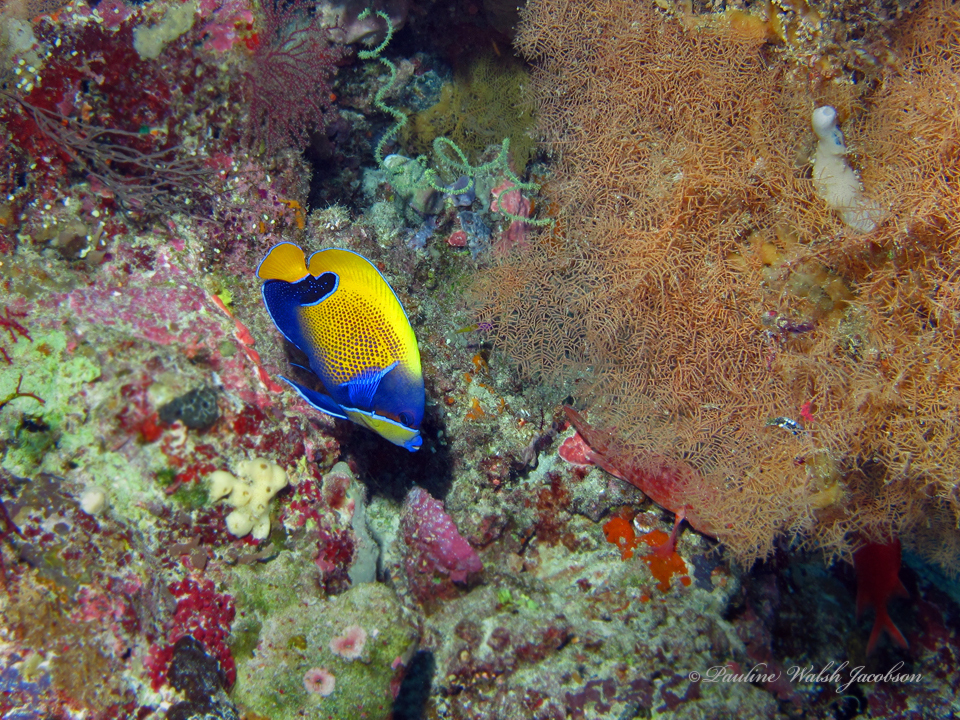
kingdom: Animalia
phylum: Chordata
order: Perciformes
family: Pomacanthidae
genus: Pomacanthus
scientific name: Pomacanthus navarchus
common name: Blue-girdled angelfish
